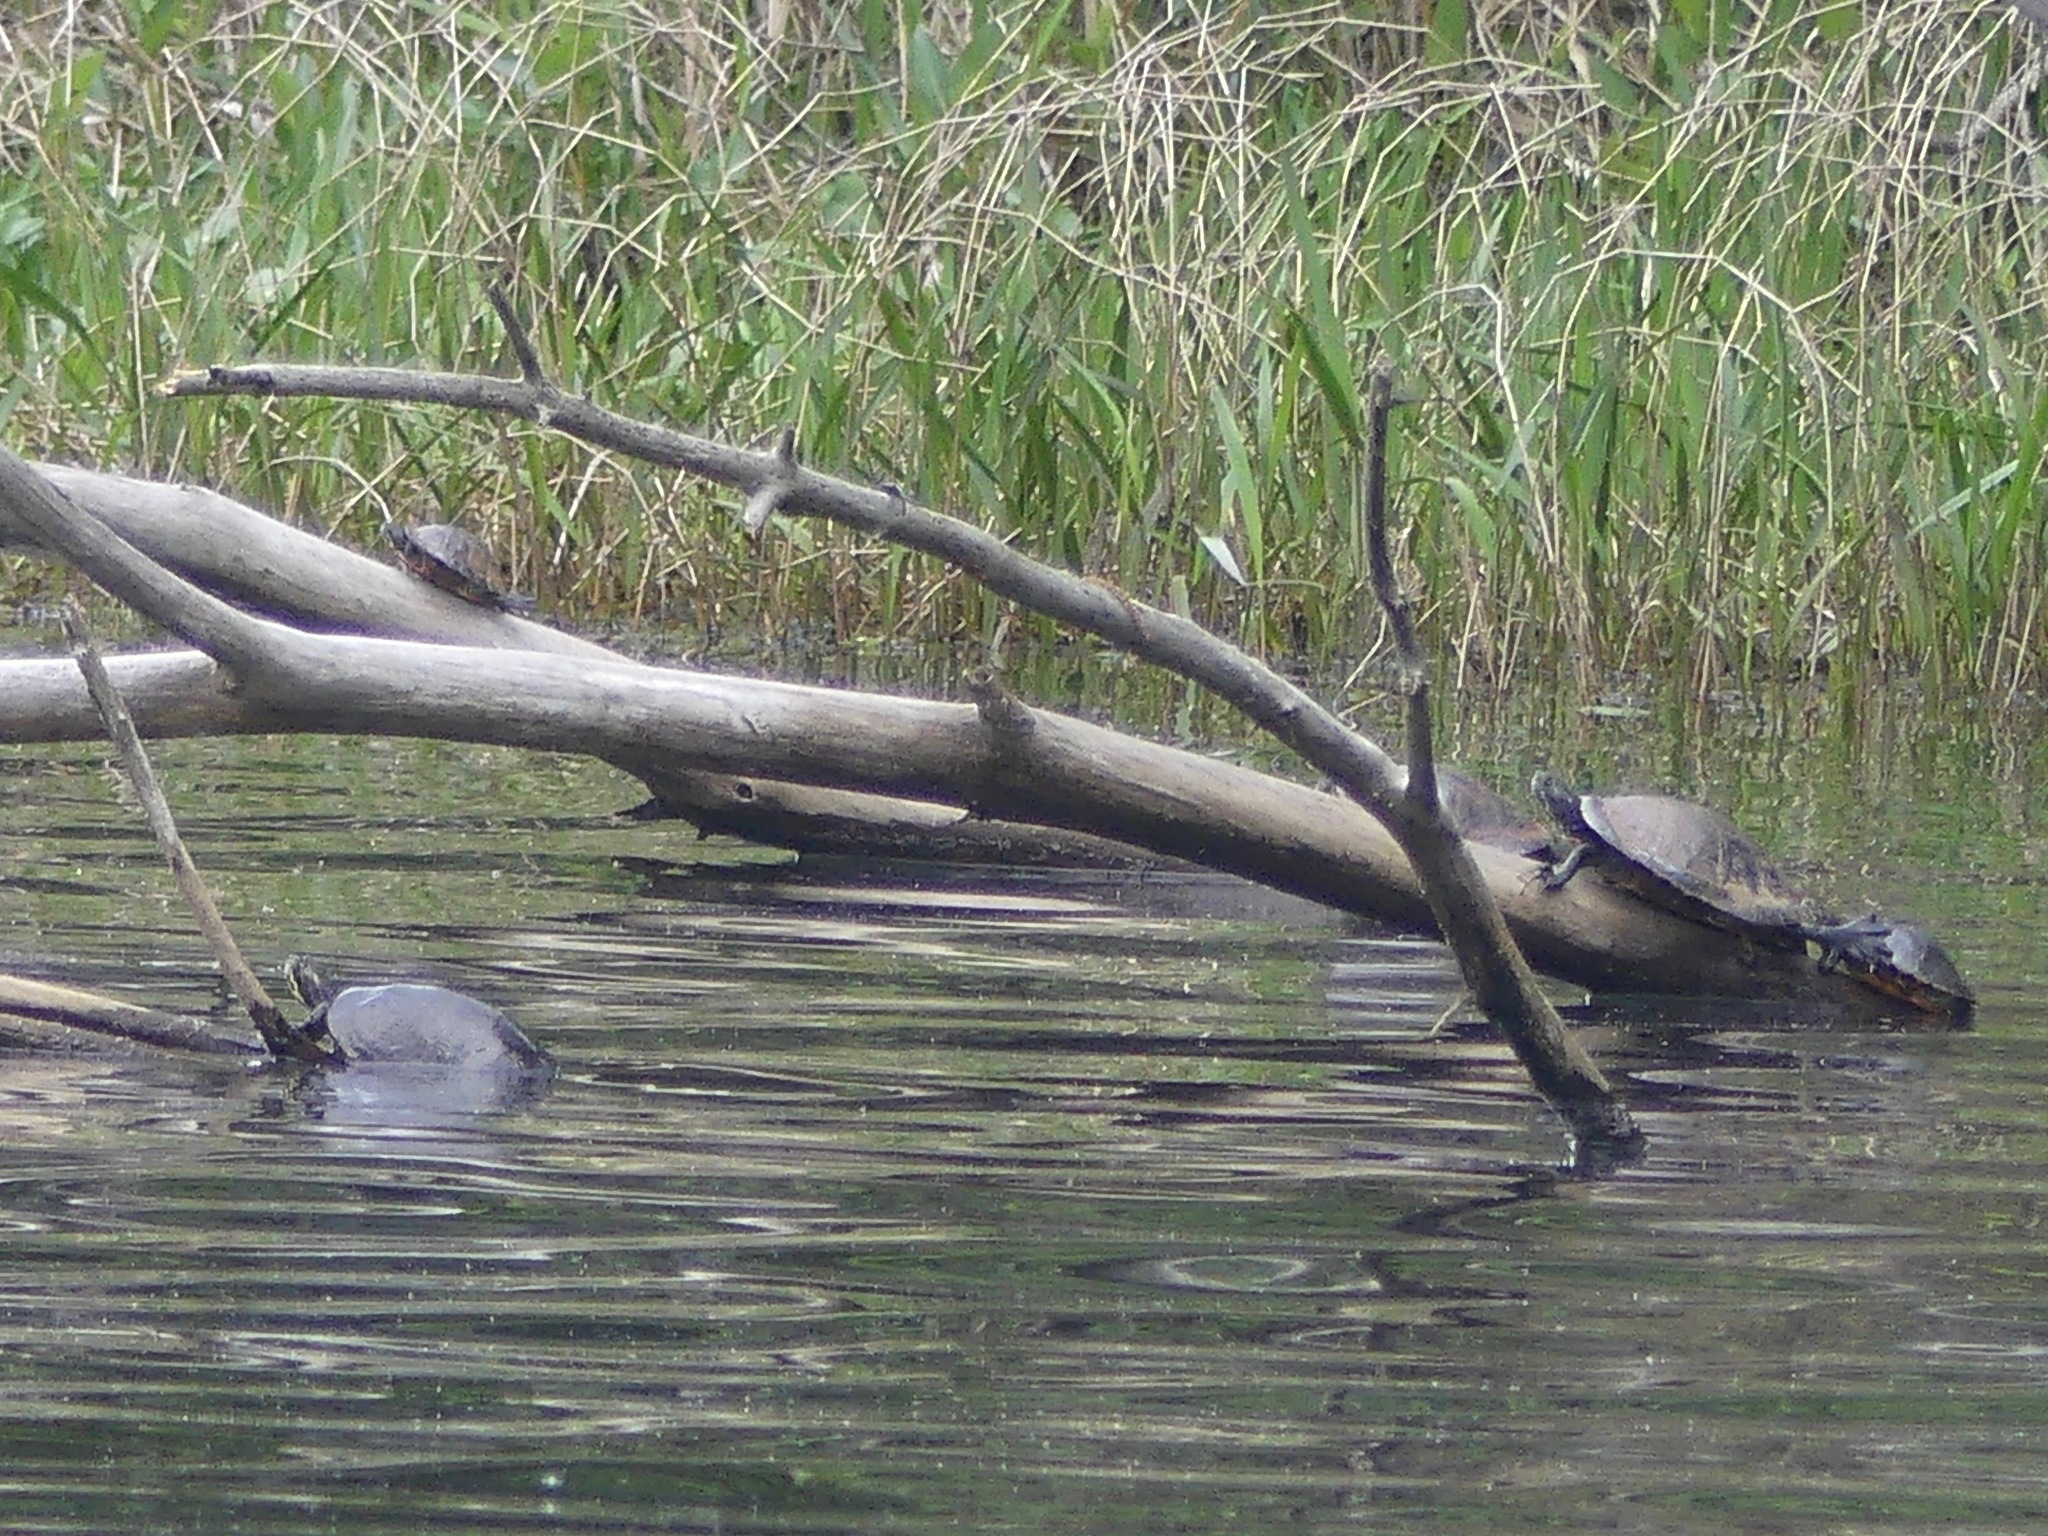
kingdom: Animalia
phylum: Chordata
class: Testudines
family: Emydidae
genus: Pseudemys
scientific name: Pseudemys concinna
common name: Eastern river cooter
